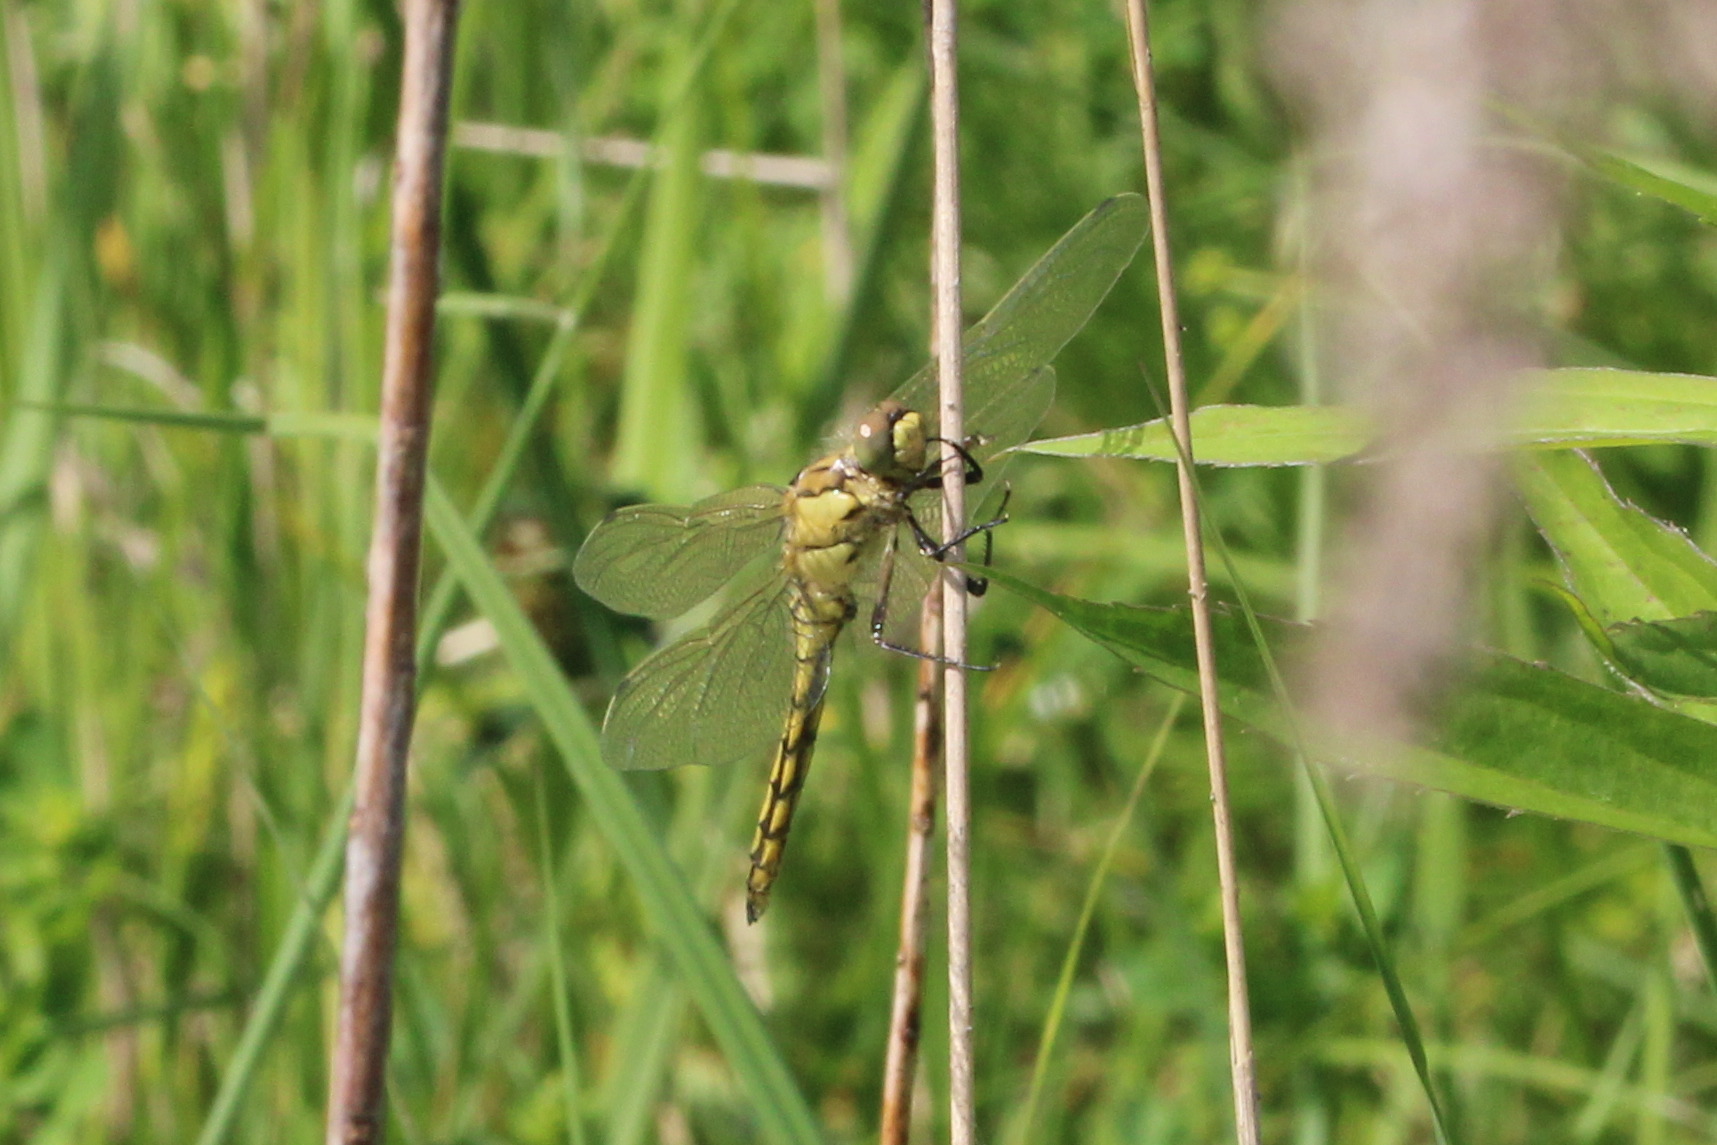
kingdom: Animalia
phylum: Arthropoda
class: Insecta
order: Odonata
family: Libellulidae
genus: Orthetrum
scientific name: Orthetrum cancellatum
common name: Black-tailed skimmer
